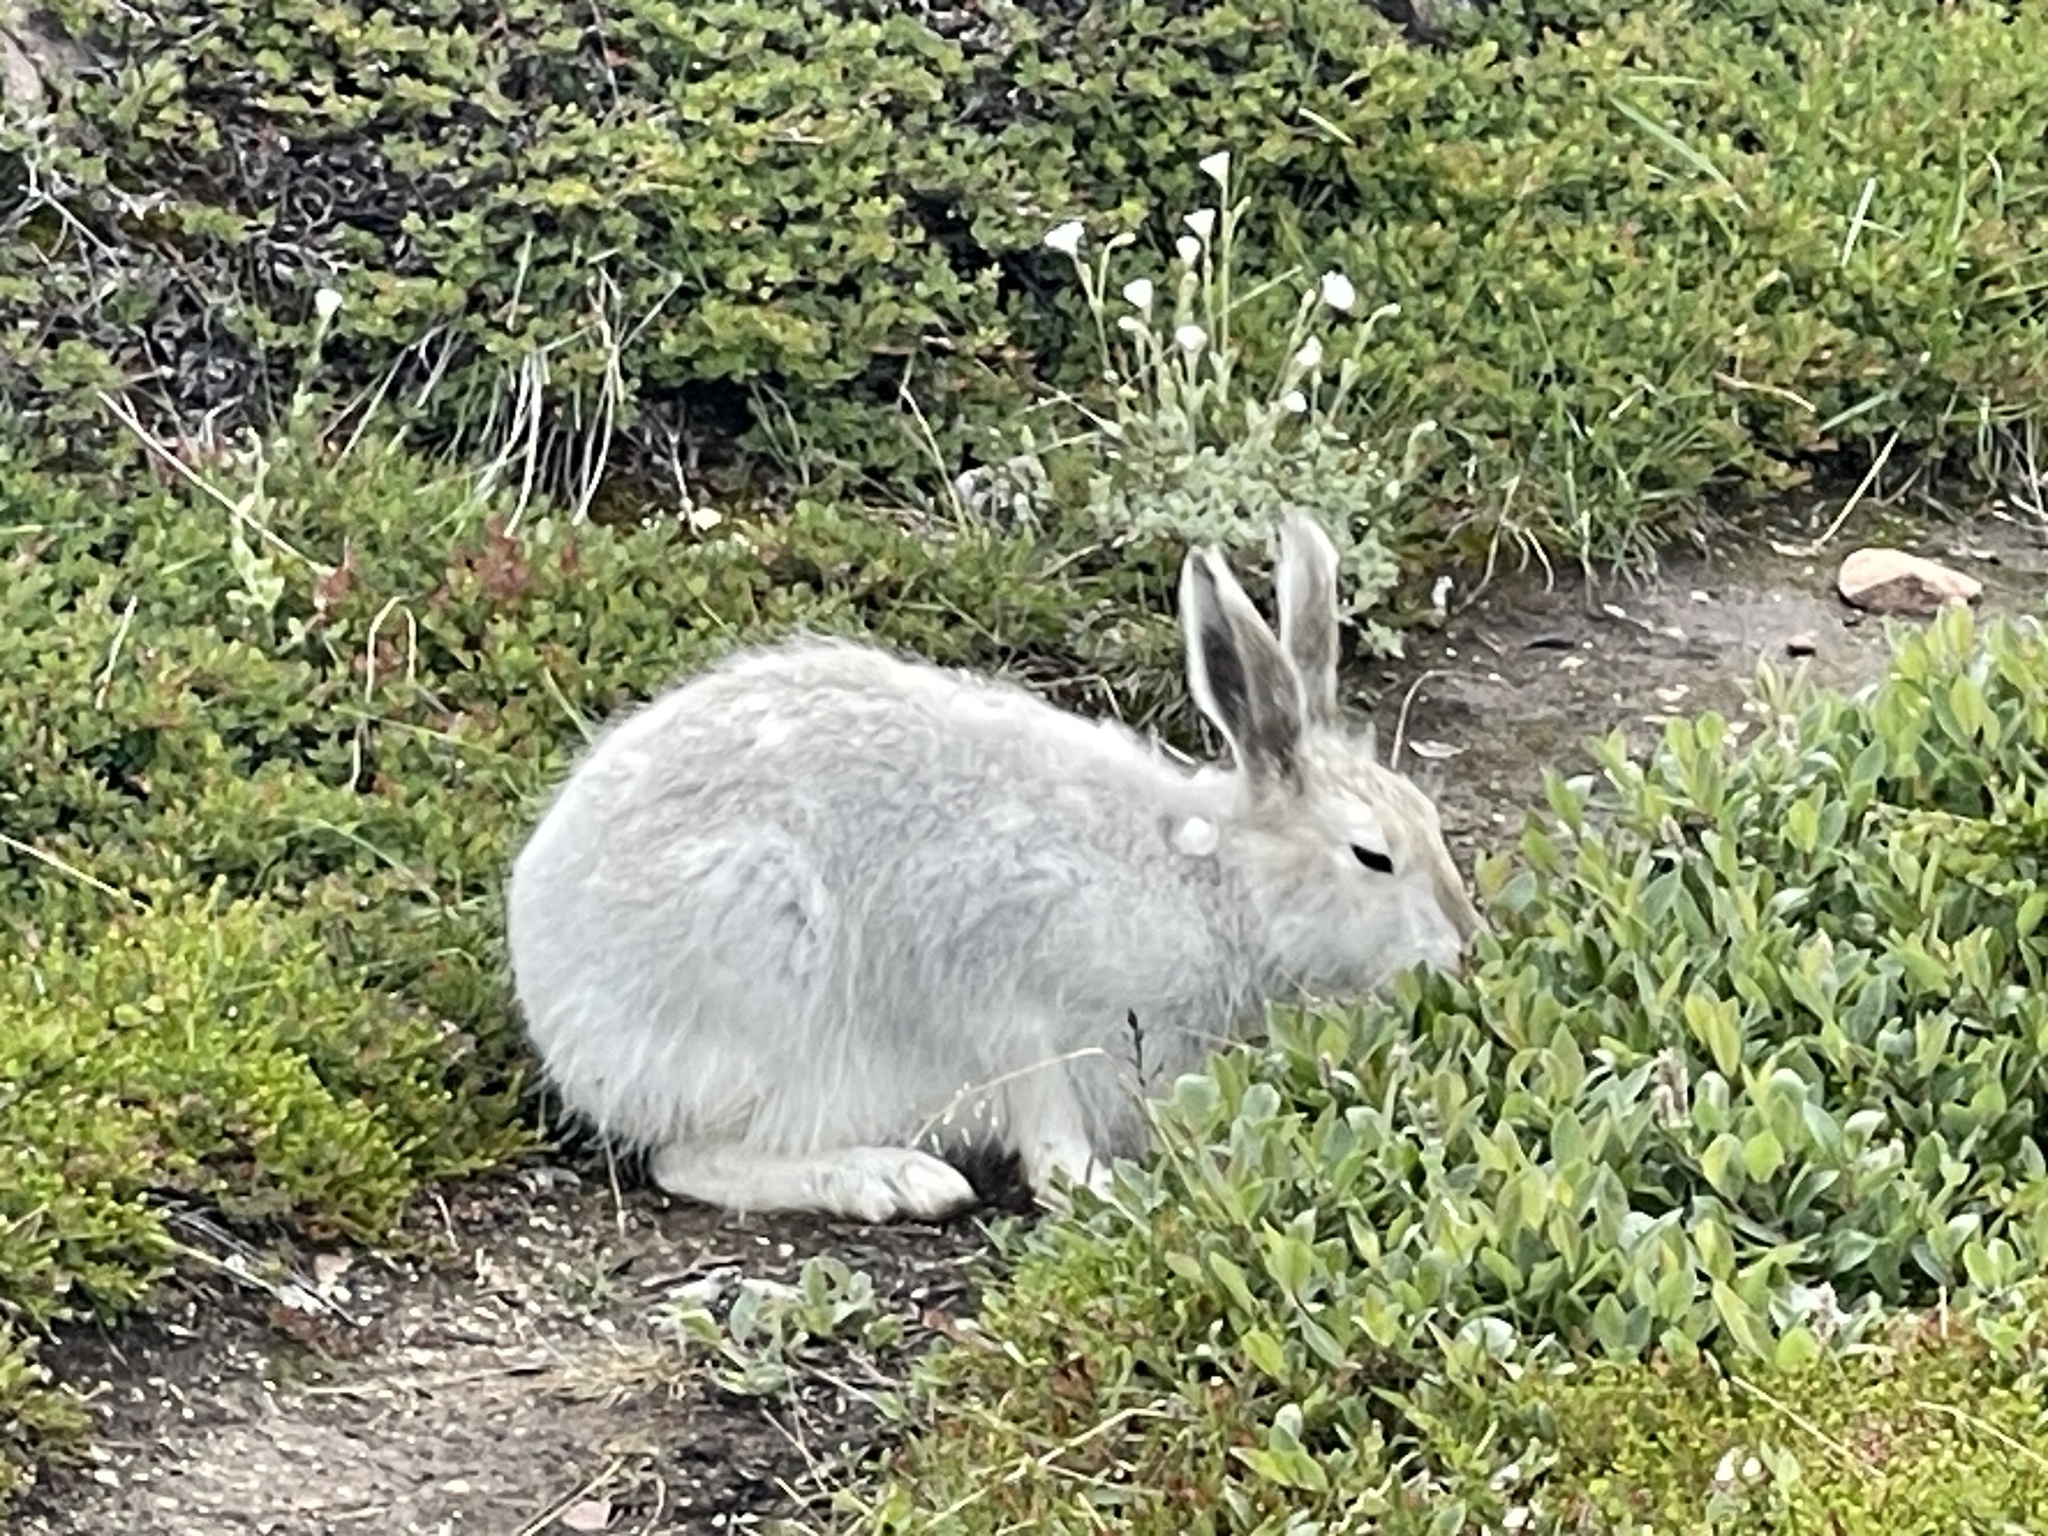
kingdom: Animalia
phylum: Chordata
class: Mammalia
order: Lagomorpha
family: Leporidae
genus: Lepus
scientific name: Lepus arcticus
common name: Arctic hare
